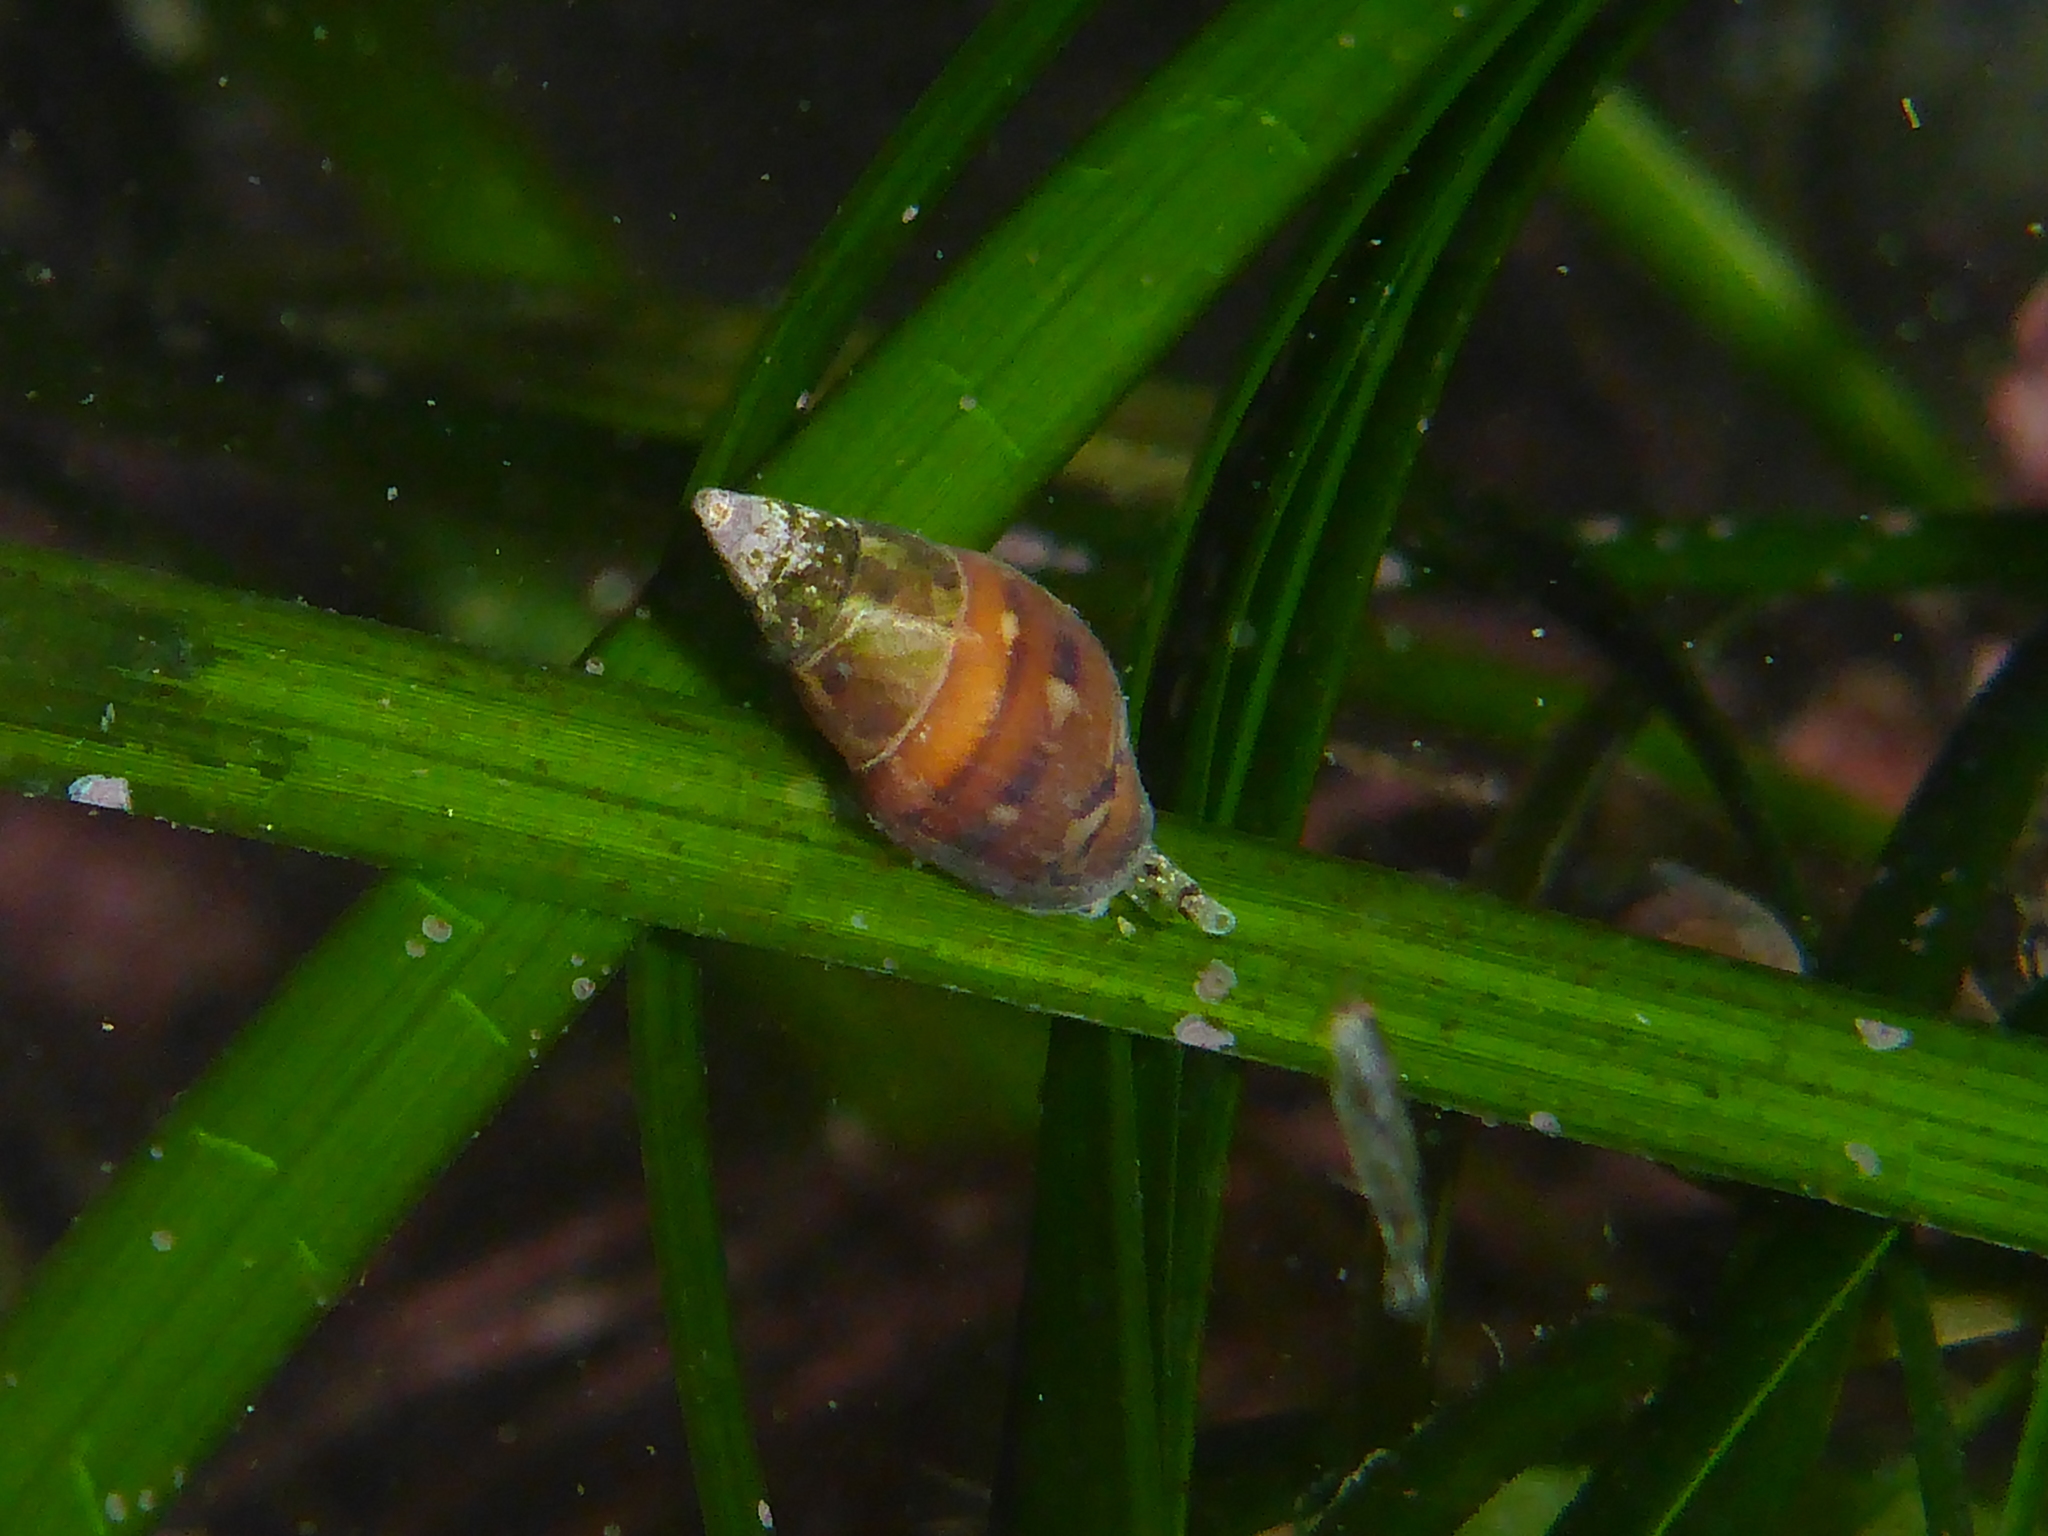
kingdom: Animalia
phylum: Mollusca
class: Gastropoda
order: Neogastropoda
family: Columbellidae
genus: Alia
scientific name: Alia carinata
